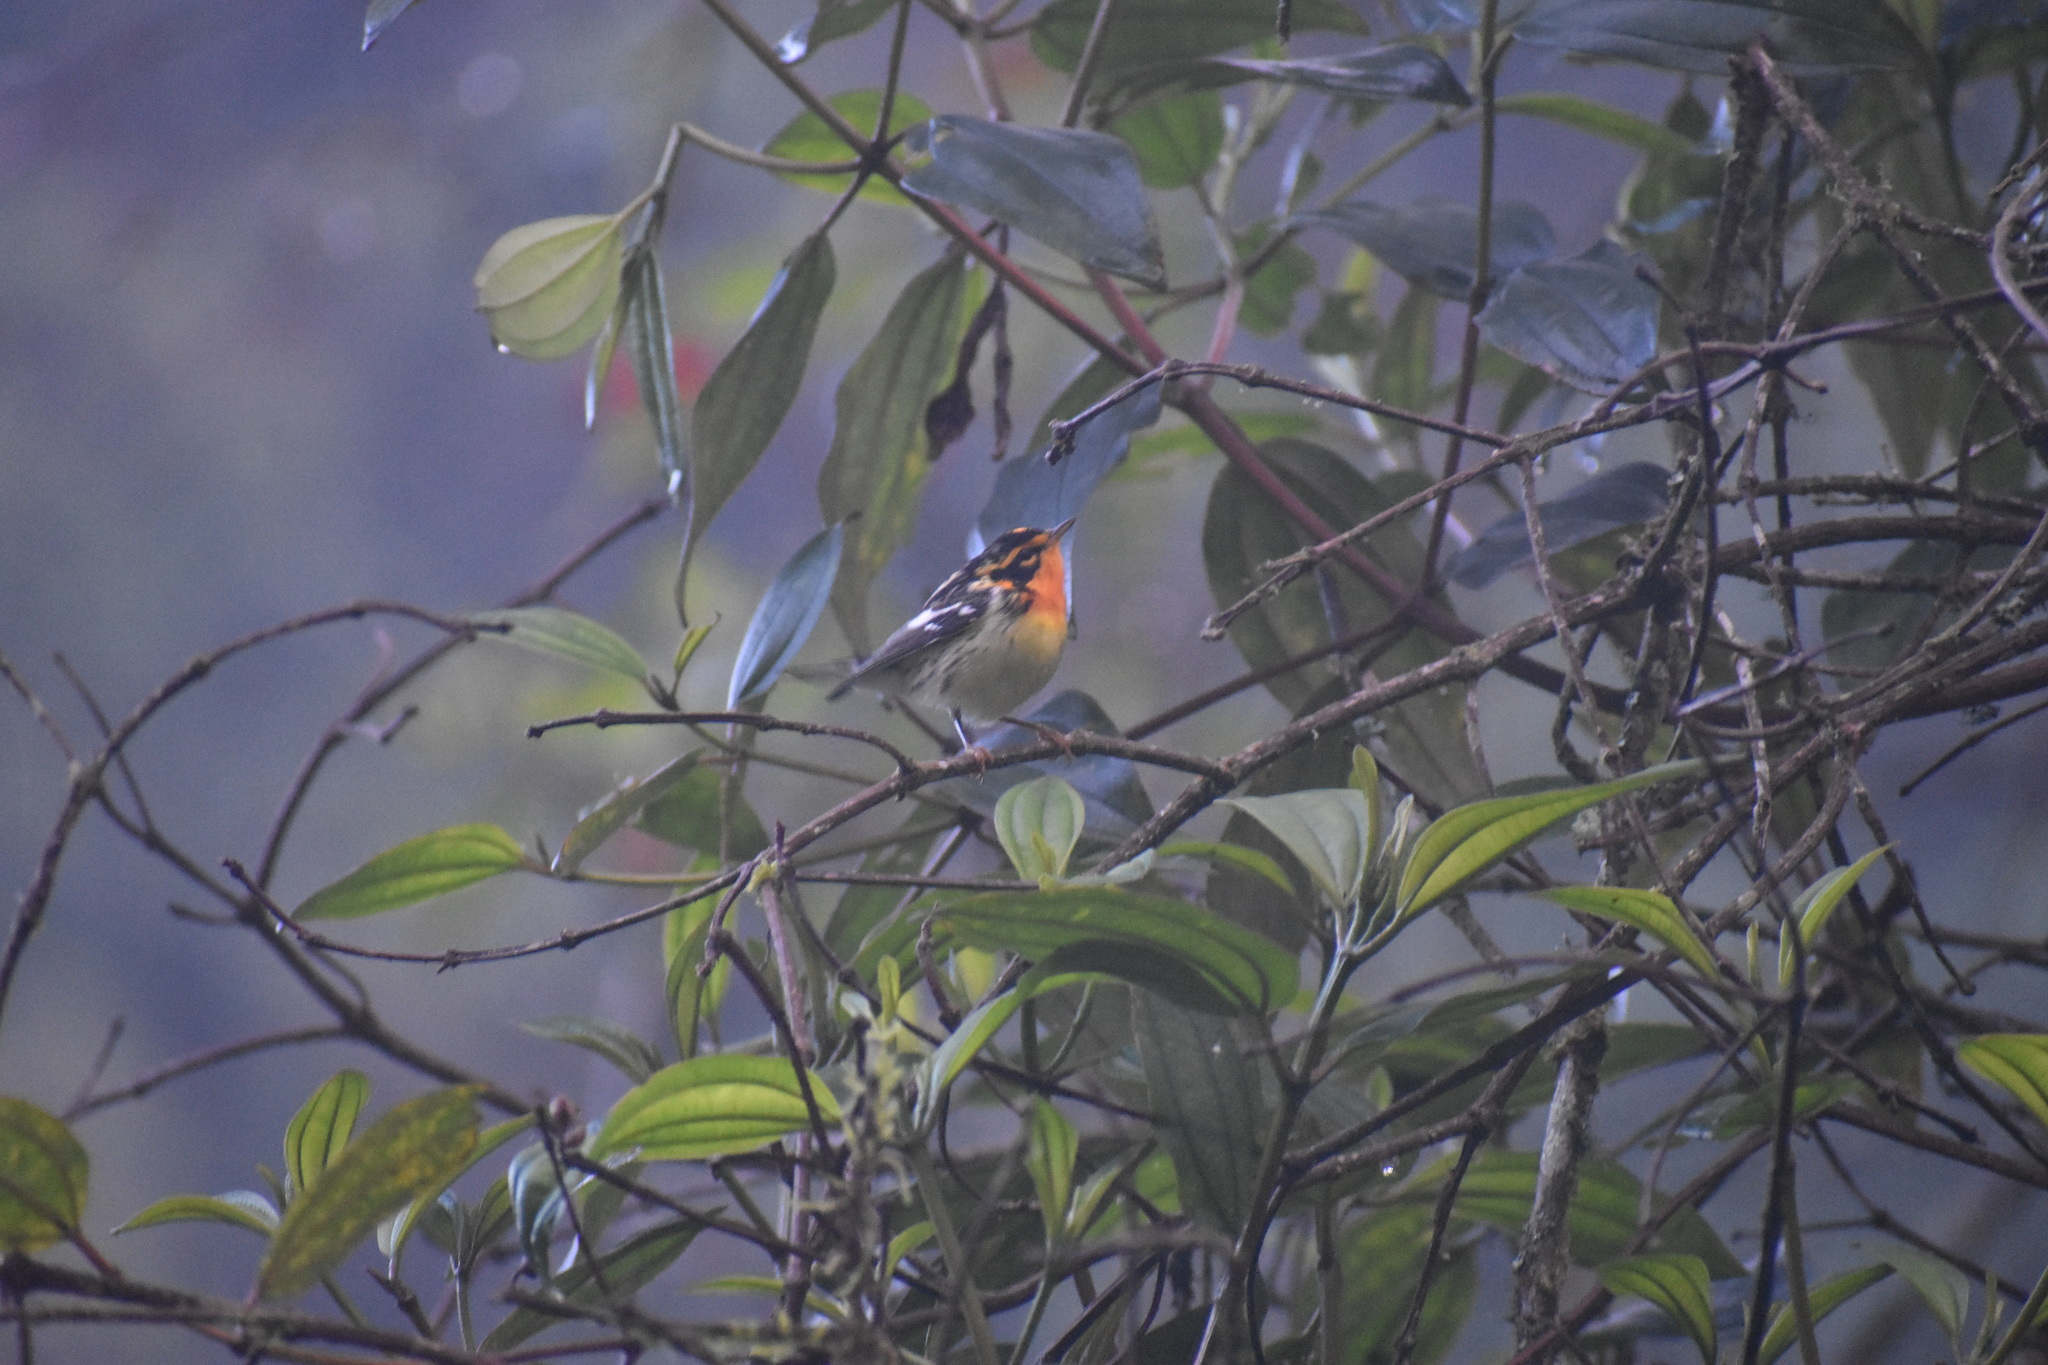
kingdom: Animalia
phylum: Chordata
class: Aves
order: Passeriformes
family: Parulidae
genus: Setophaga
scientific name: Setophaga fusca
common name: Blackburnian warbler
